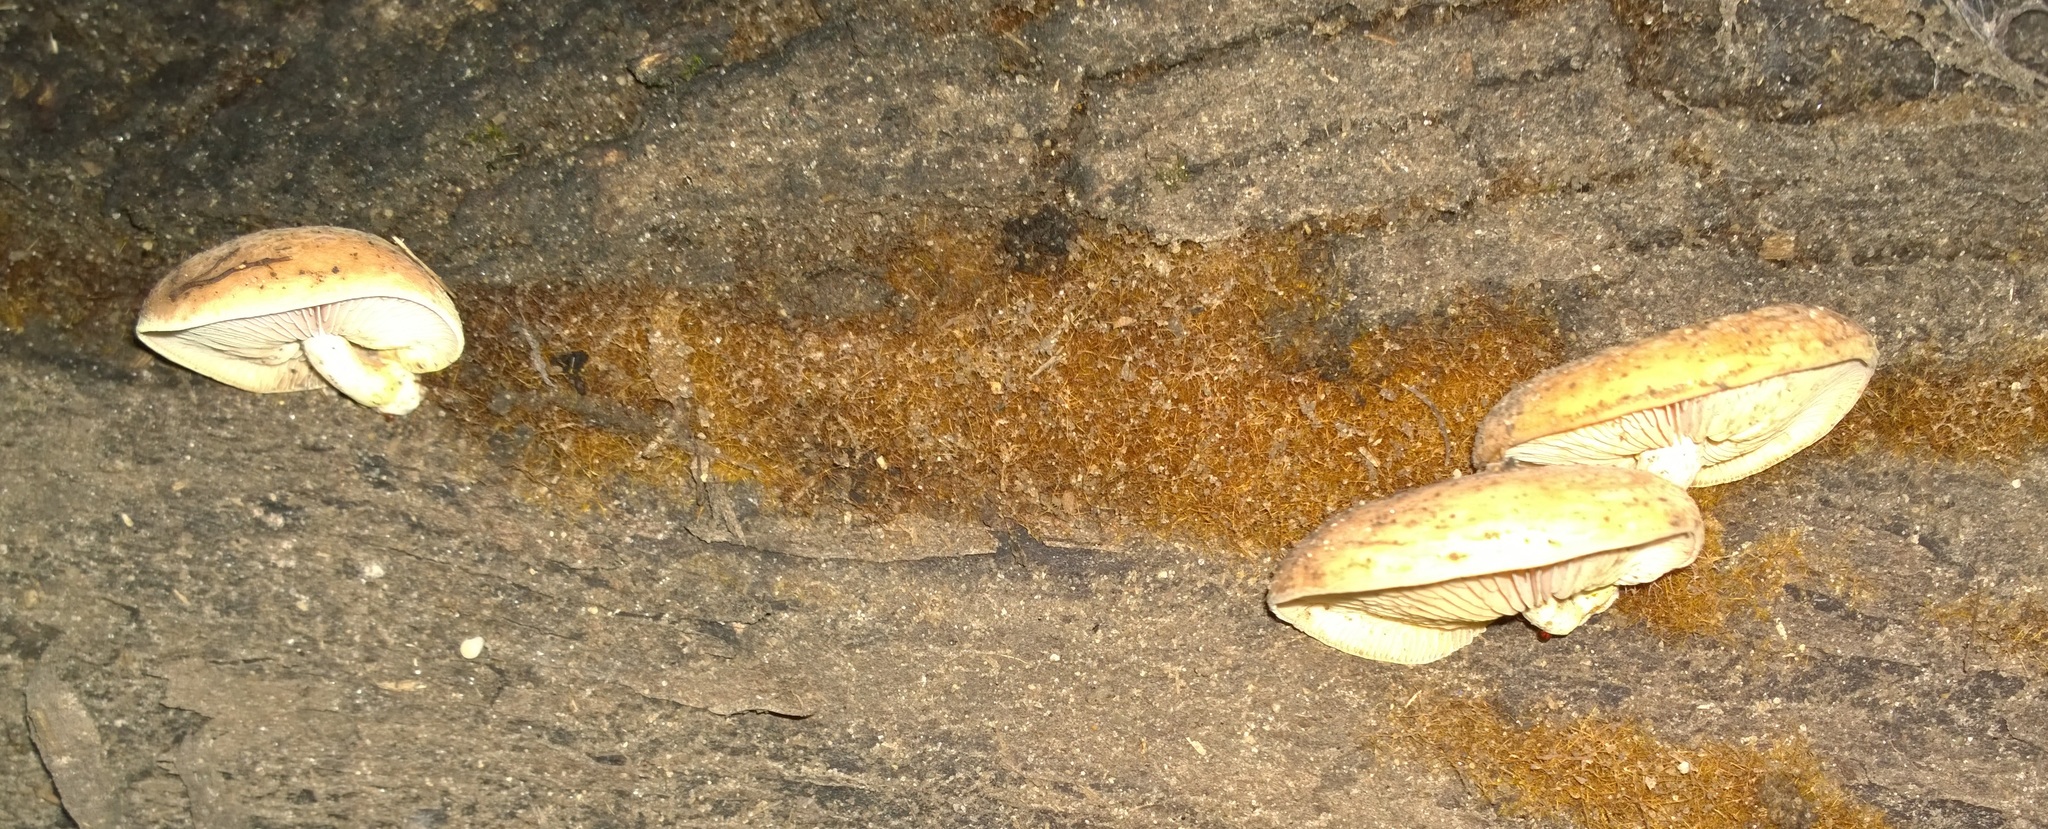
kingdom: Fungi
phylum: Basidiomycota
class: Agaricomycetes
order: Agaricales
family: Physalacriaceae
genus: Rhodotus
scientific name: Rhodotus palmatus
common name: Wrinkled peach
